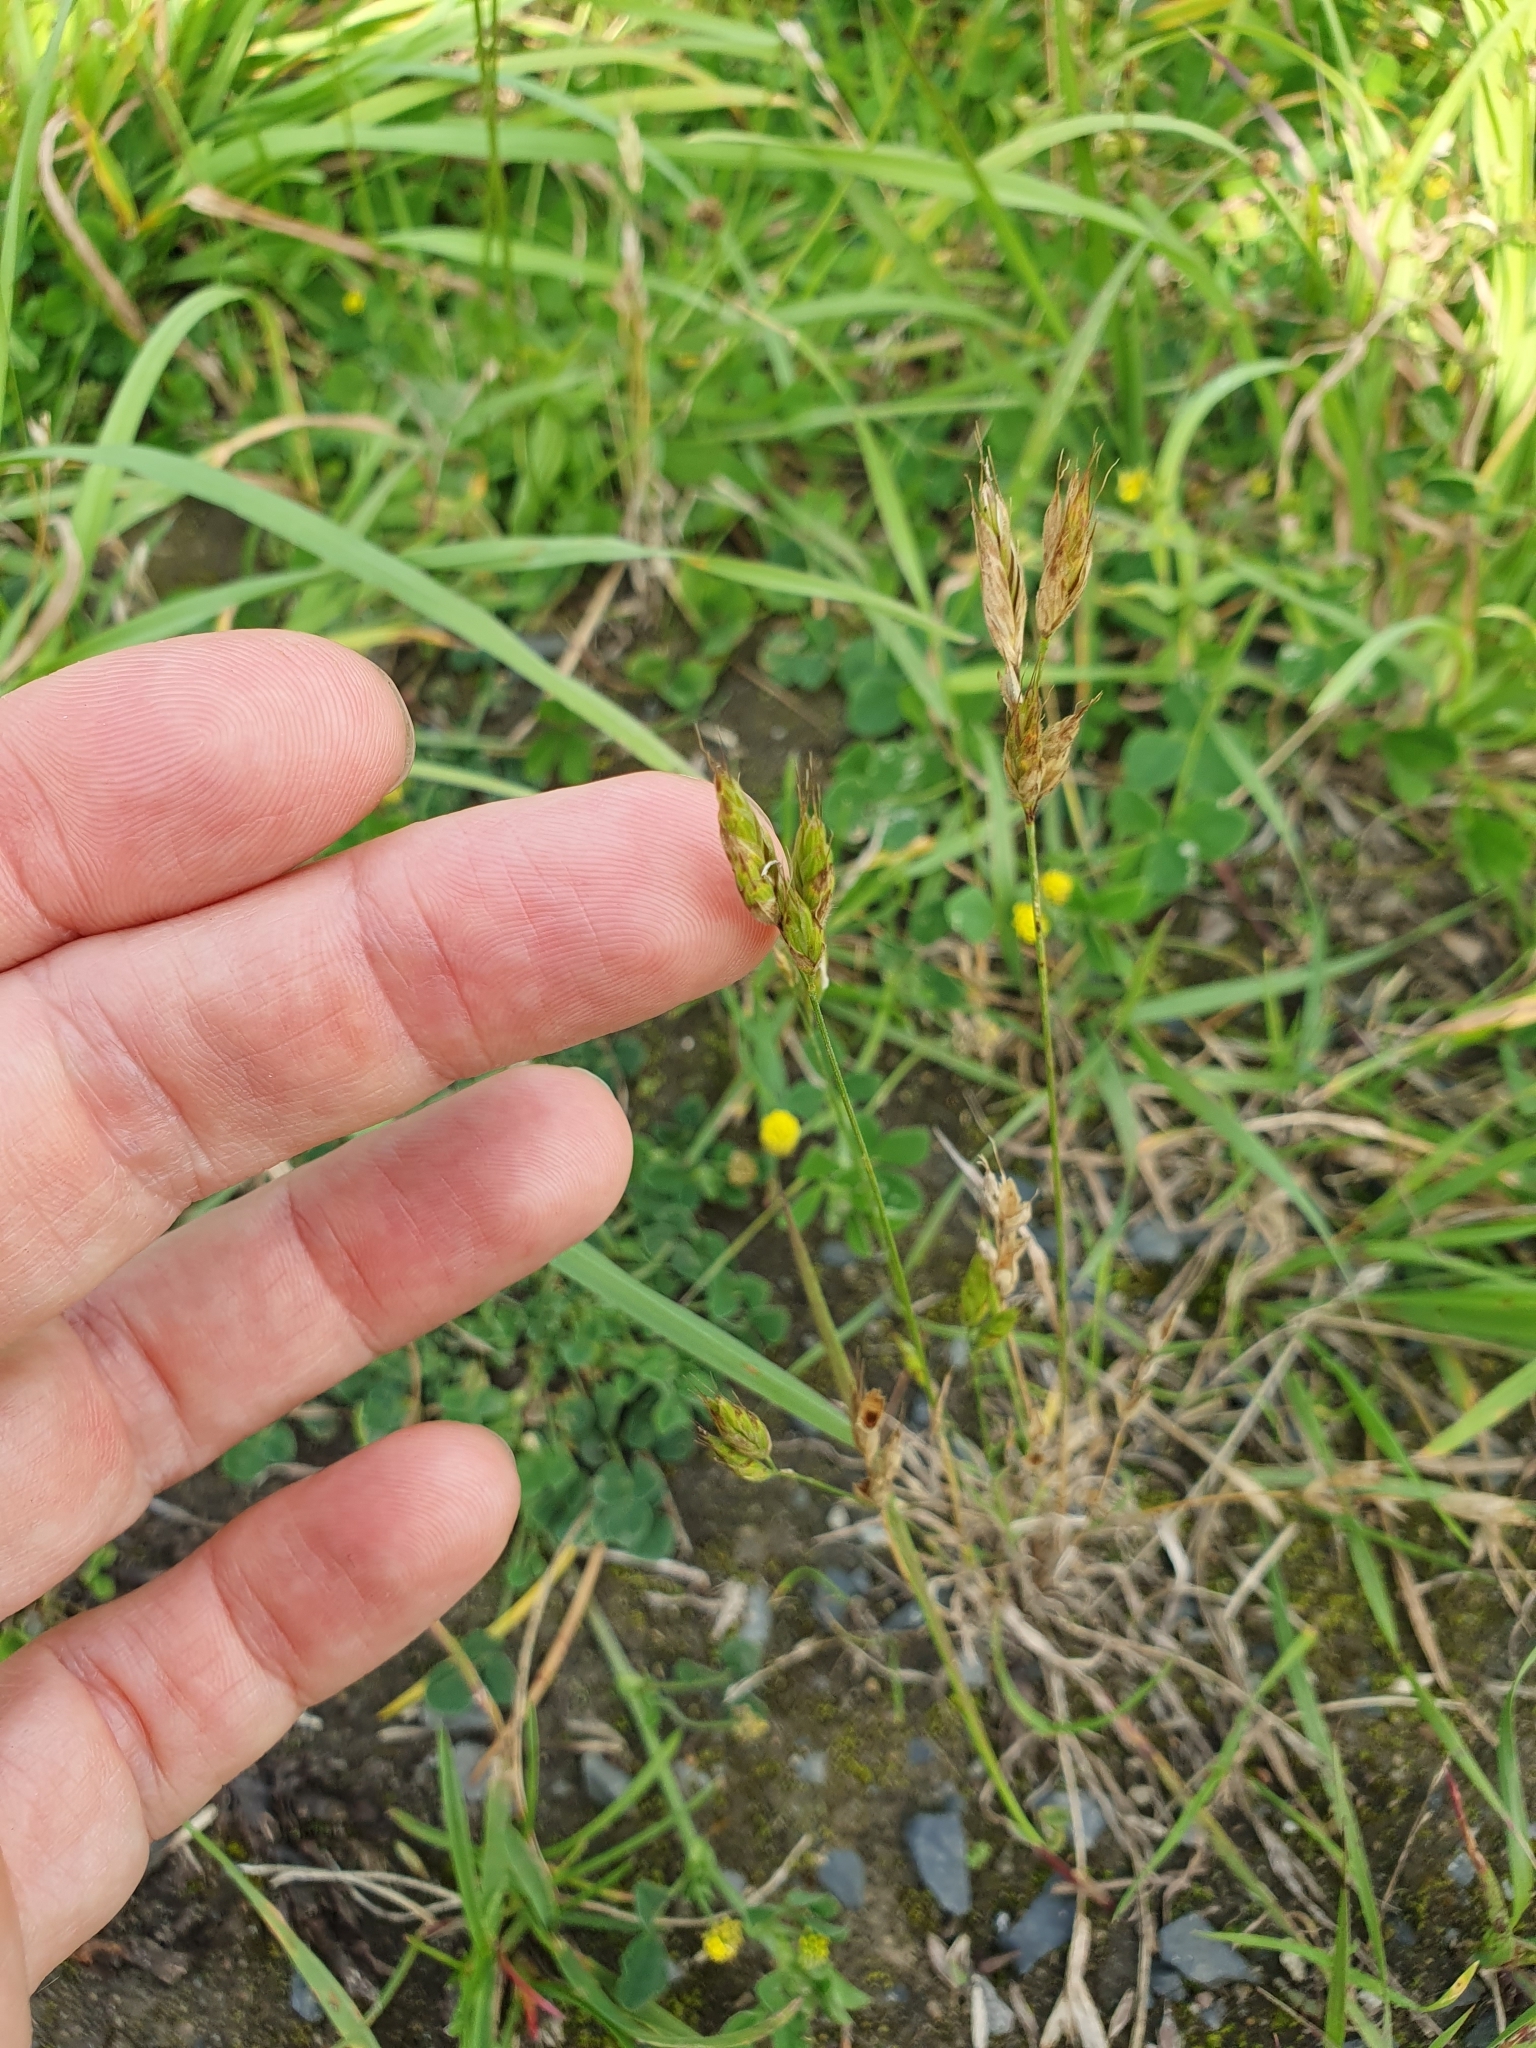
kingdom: Plantae
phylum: Tracheophyta
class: Liliopsida
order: Poales
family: Poaceae
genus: Bromus
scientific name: Bromus hordeaceus
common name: Soft brome
